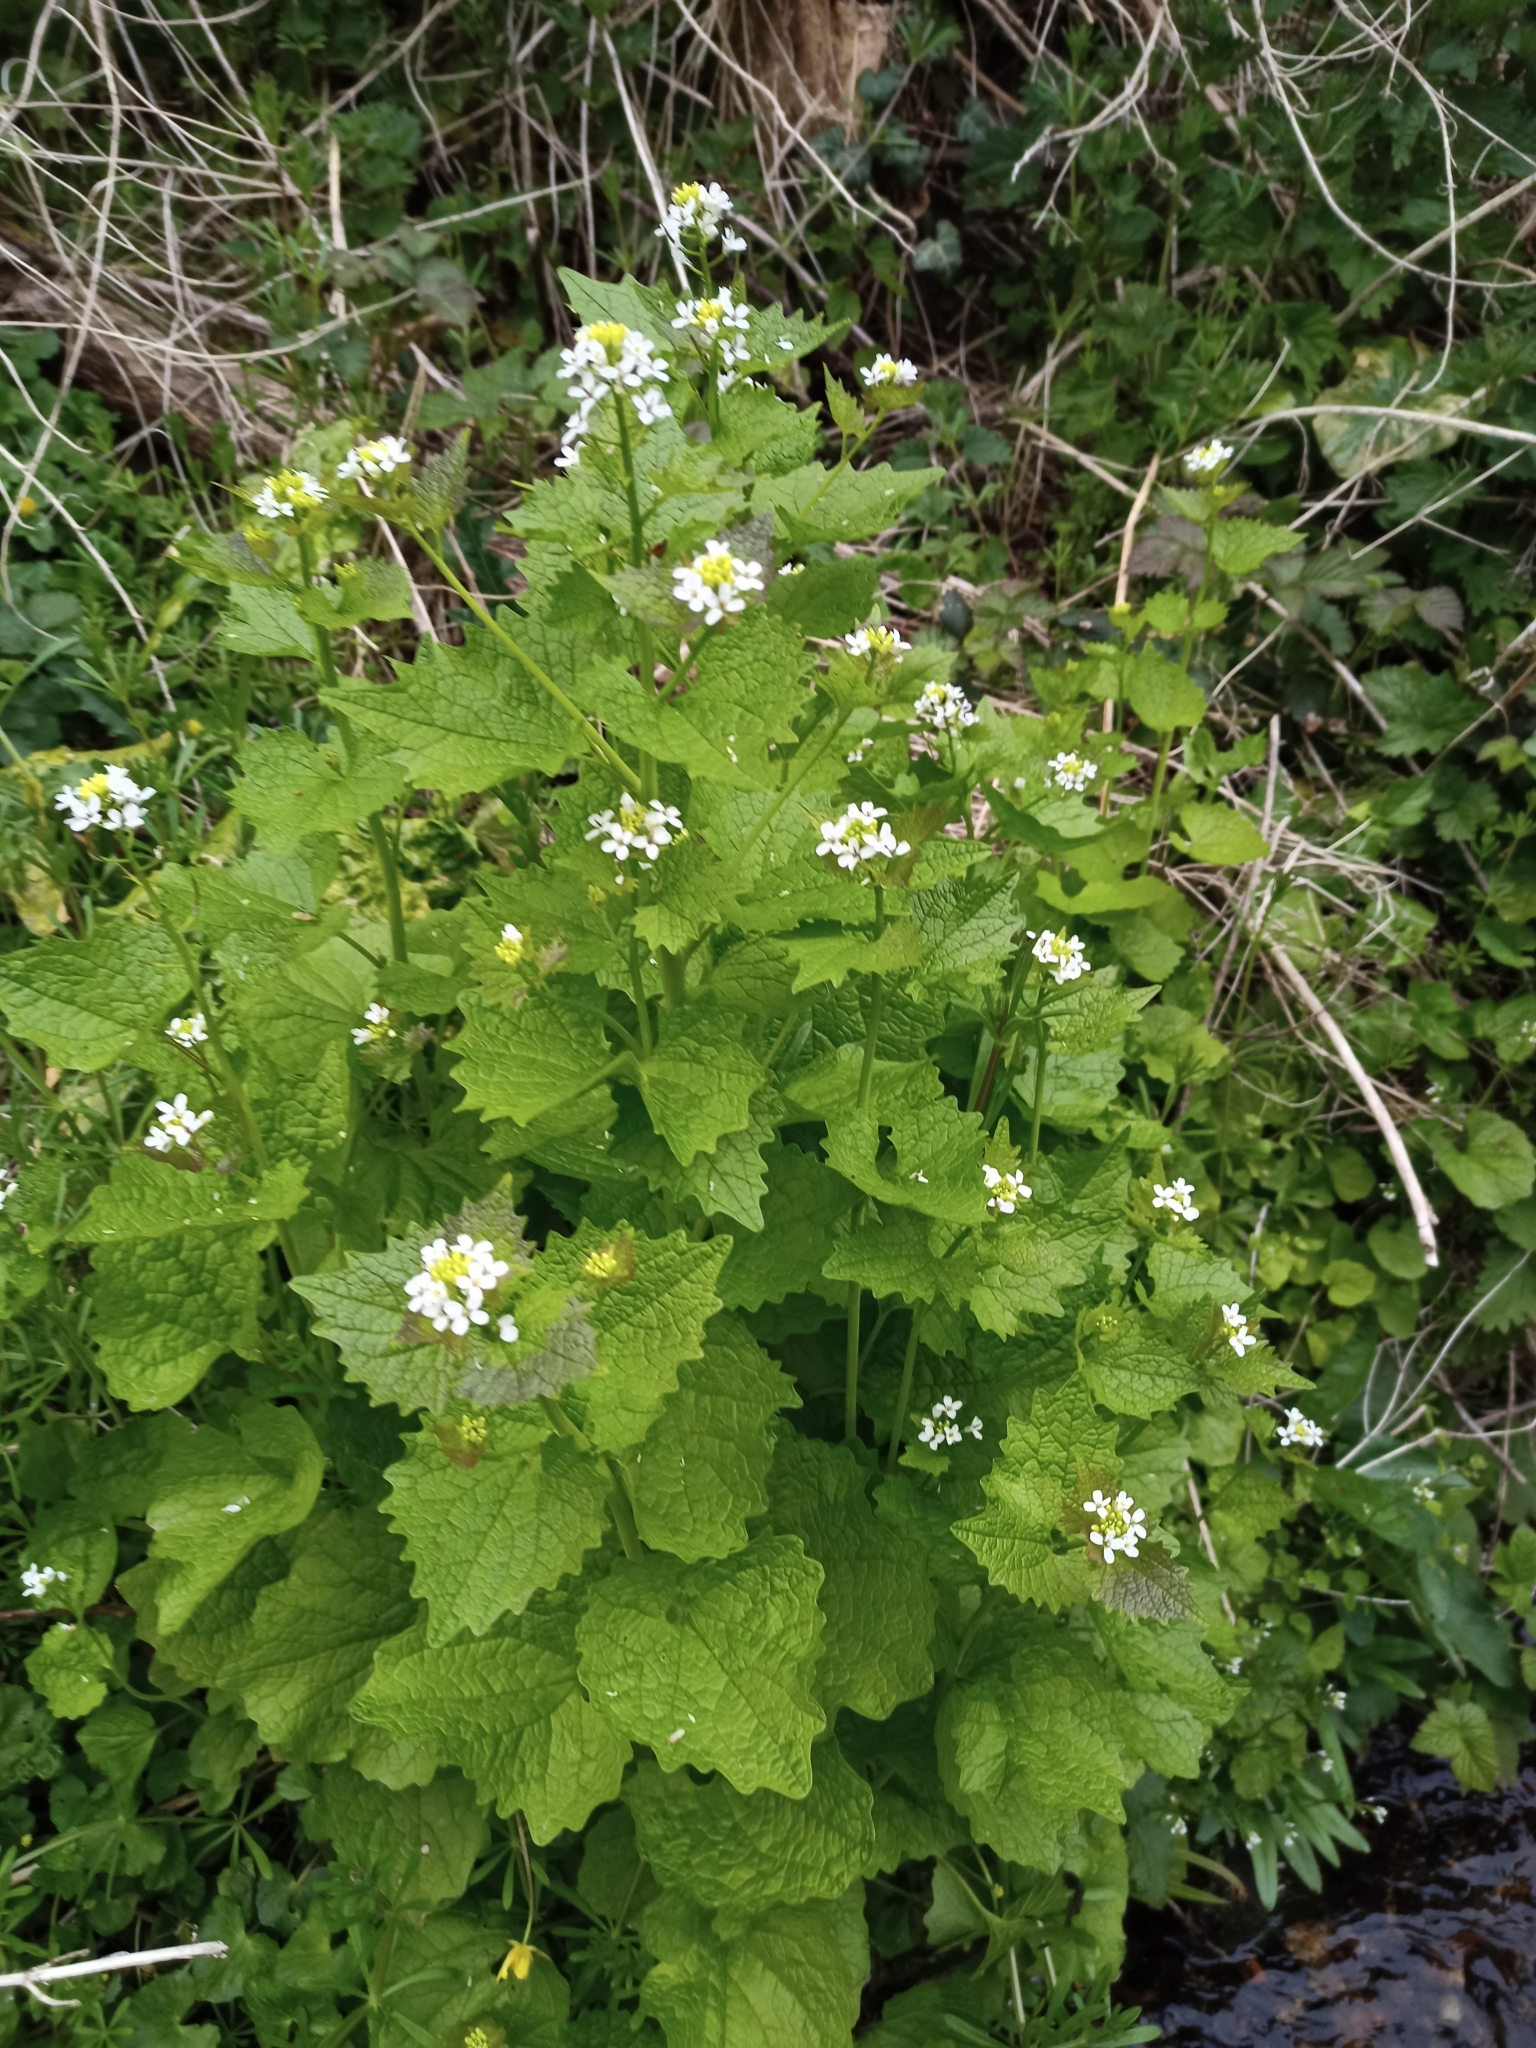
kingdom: Plantae
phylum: Tracheophyta
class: Magnoliopsida
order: Brassicales
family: Brassicaceae
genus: Alliaria
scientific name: Alliaria petiolata
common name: Garlic mustard
